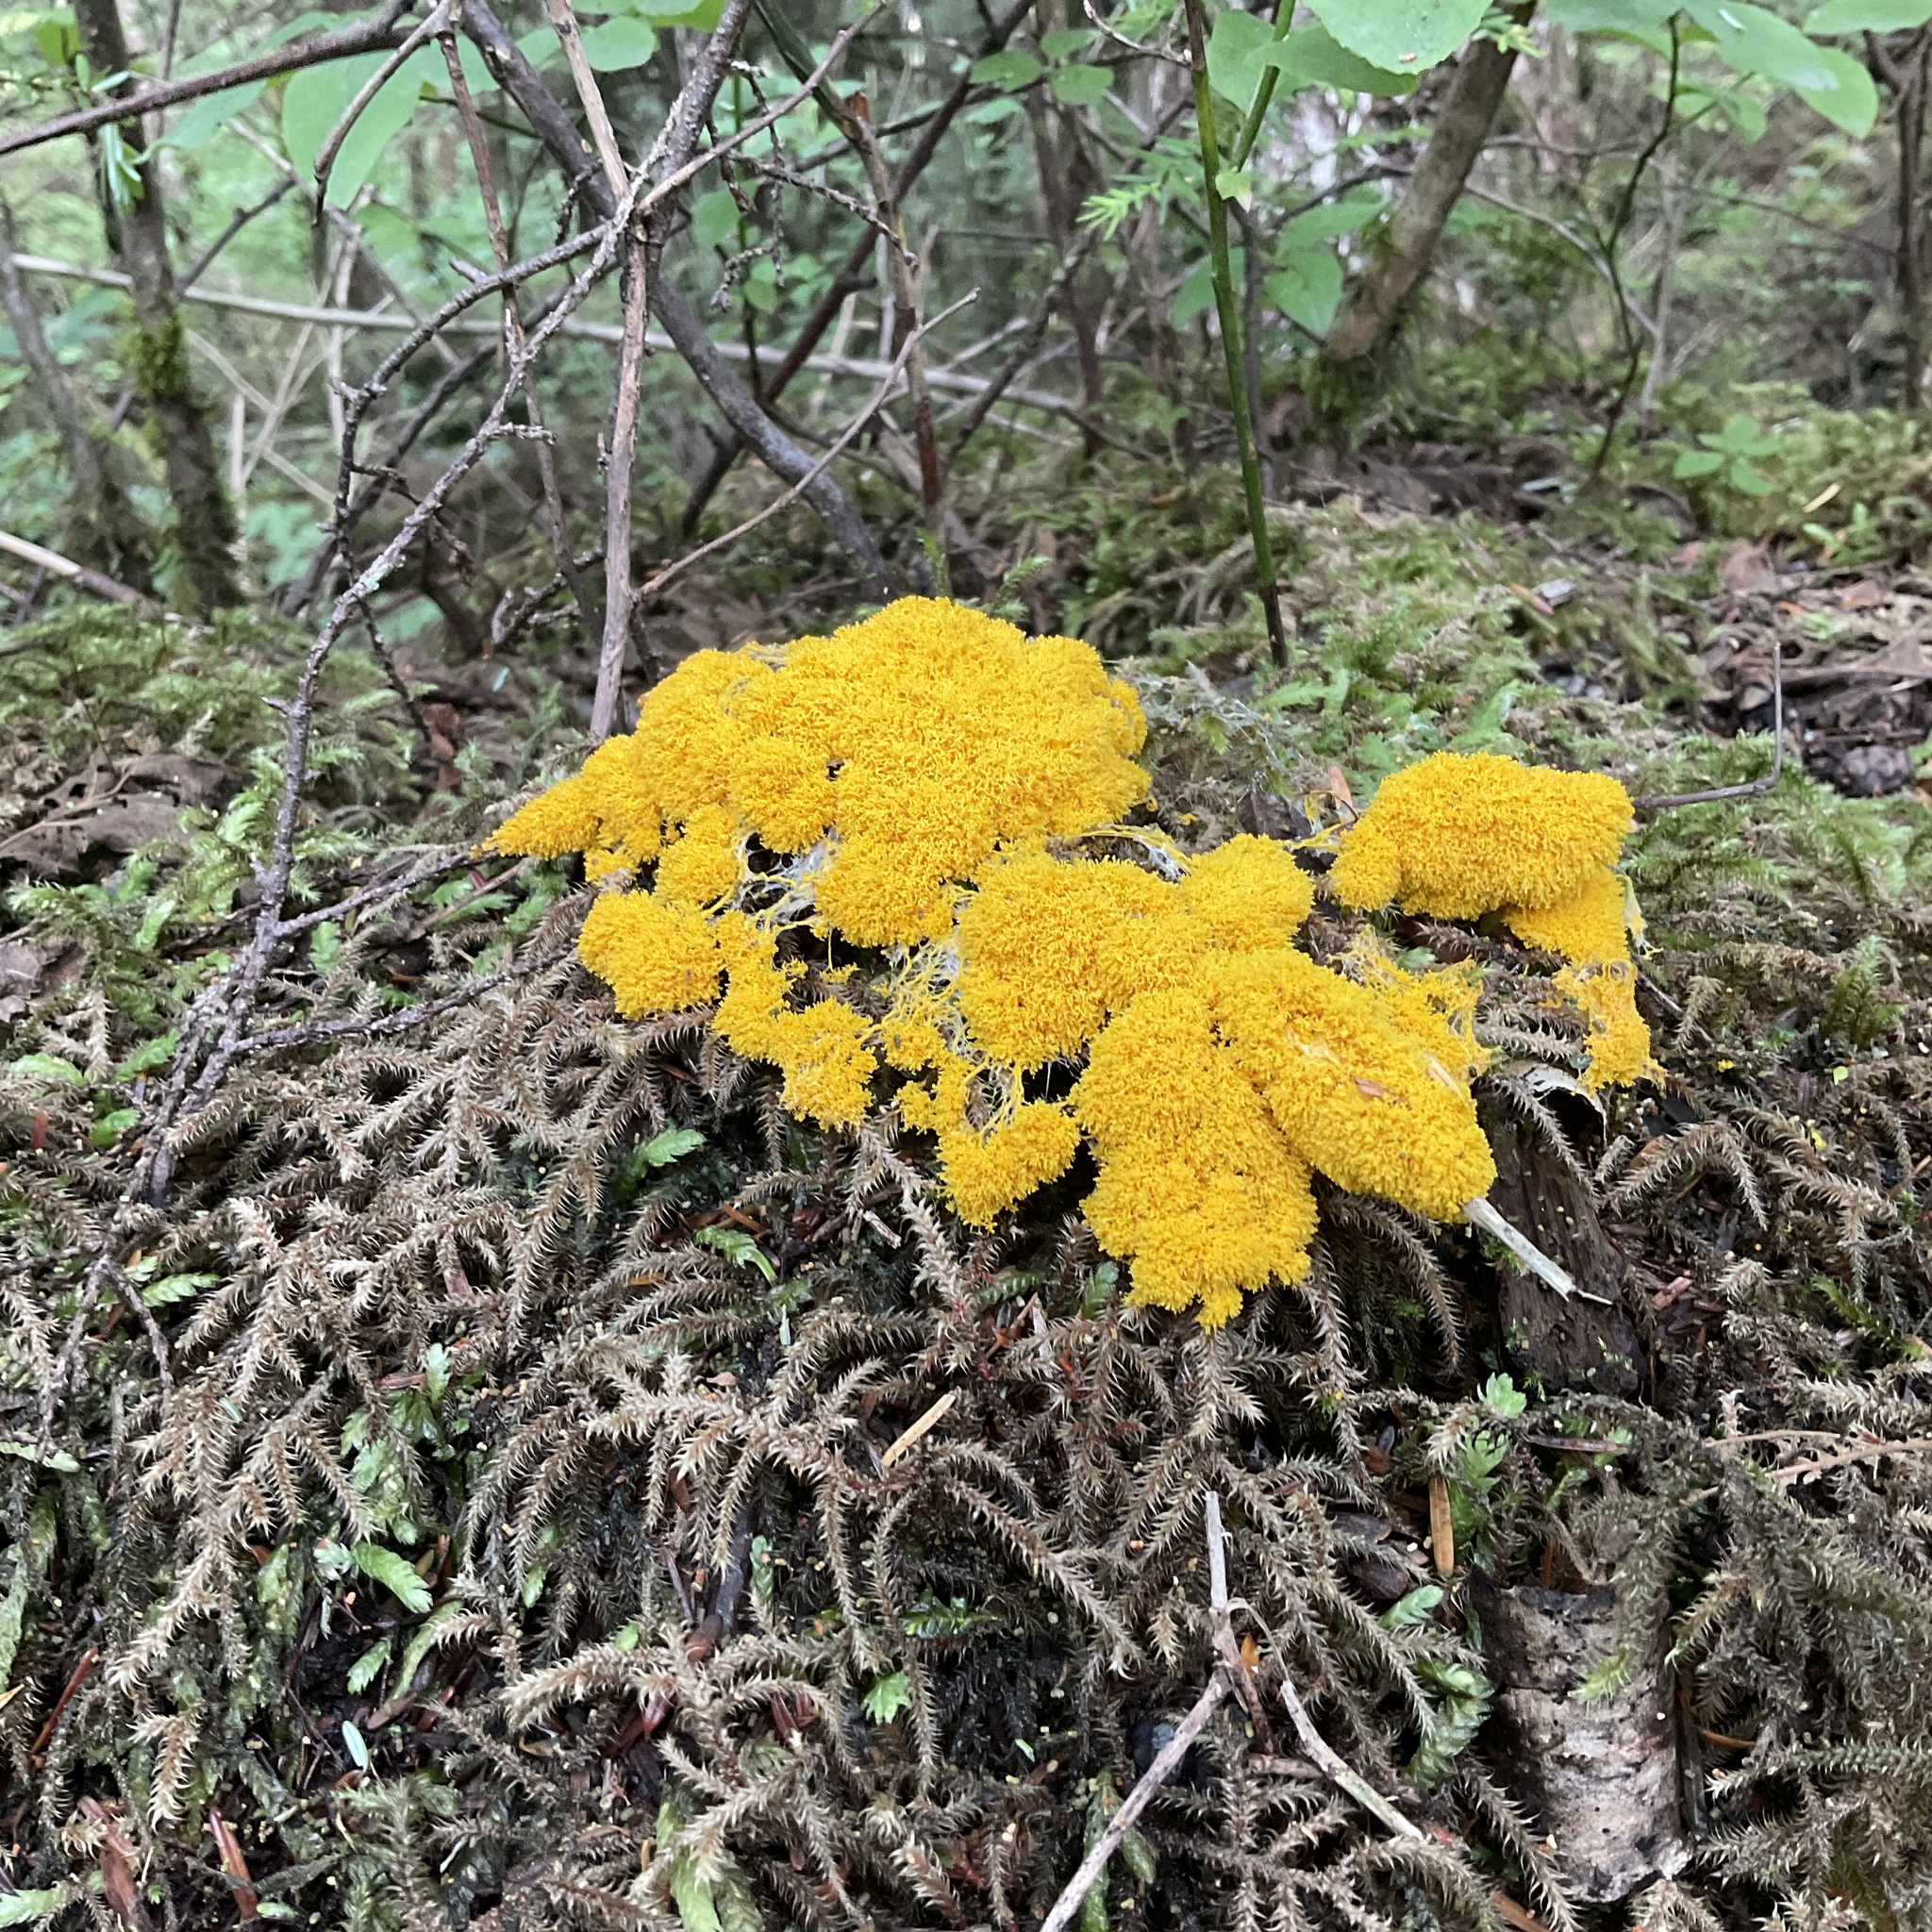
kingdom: Protozoa
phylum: Mycetozoa
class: Myxomycetes
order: Physarales
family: Physaraceae
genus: Fuligo
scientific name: Fuligo septica
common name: Dog vomit slime mold
